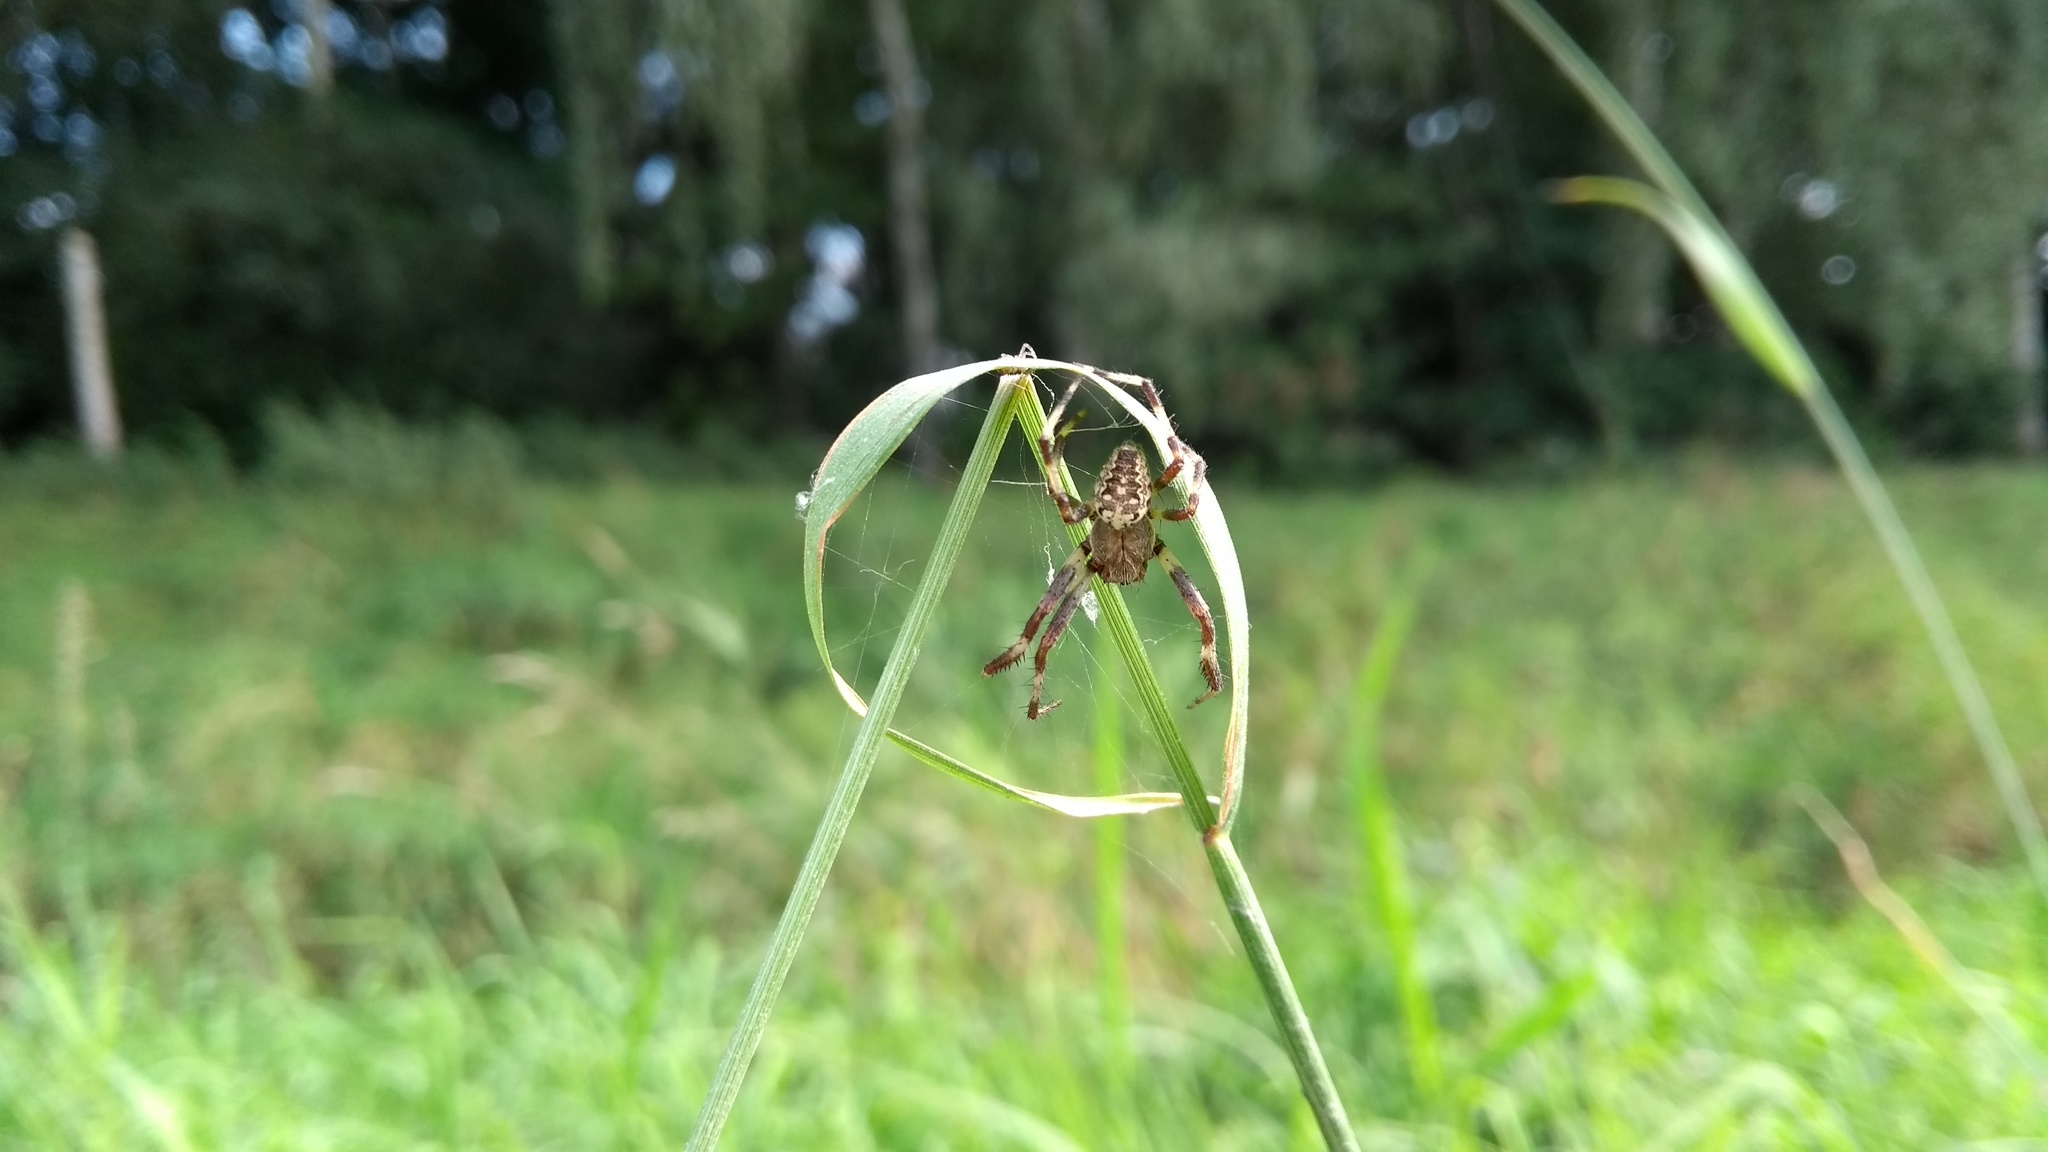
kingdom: Animalia
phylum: Arthropoda
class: Arachnida
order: Araneae
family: Araneidae
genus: Araneus
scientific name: Araneus diadematus
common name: Cross orbweaver
